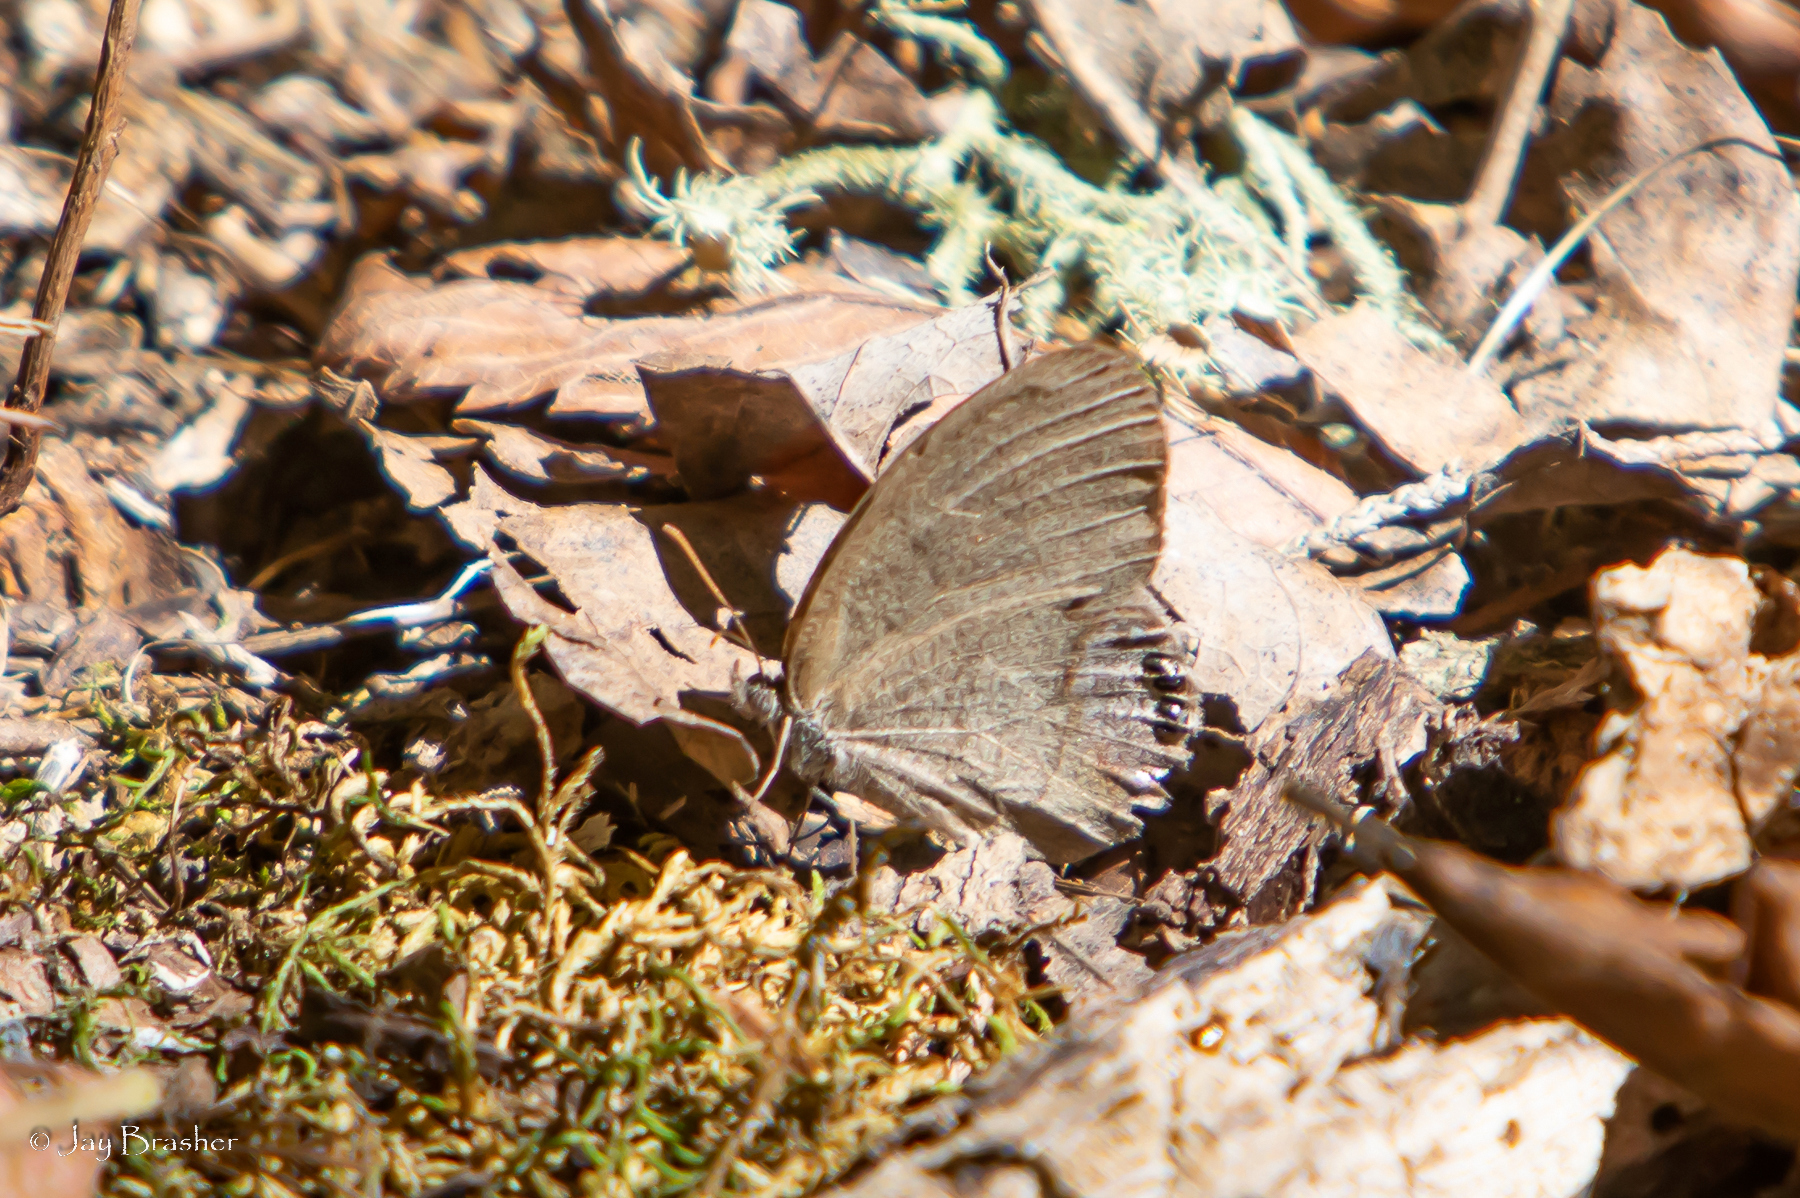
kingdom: Animalia
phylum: Arthropoda
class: Insecta
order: Lepidoptera
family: Nymphalidae
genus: Euptychia
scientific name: Euptychia cornelius
